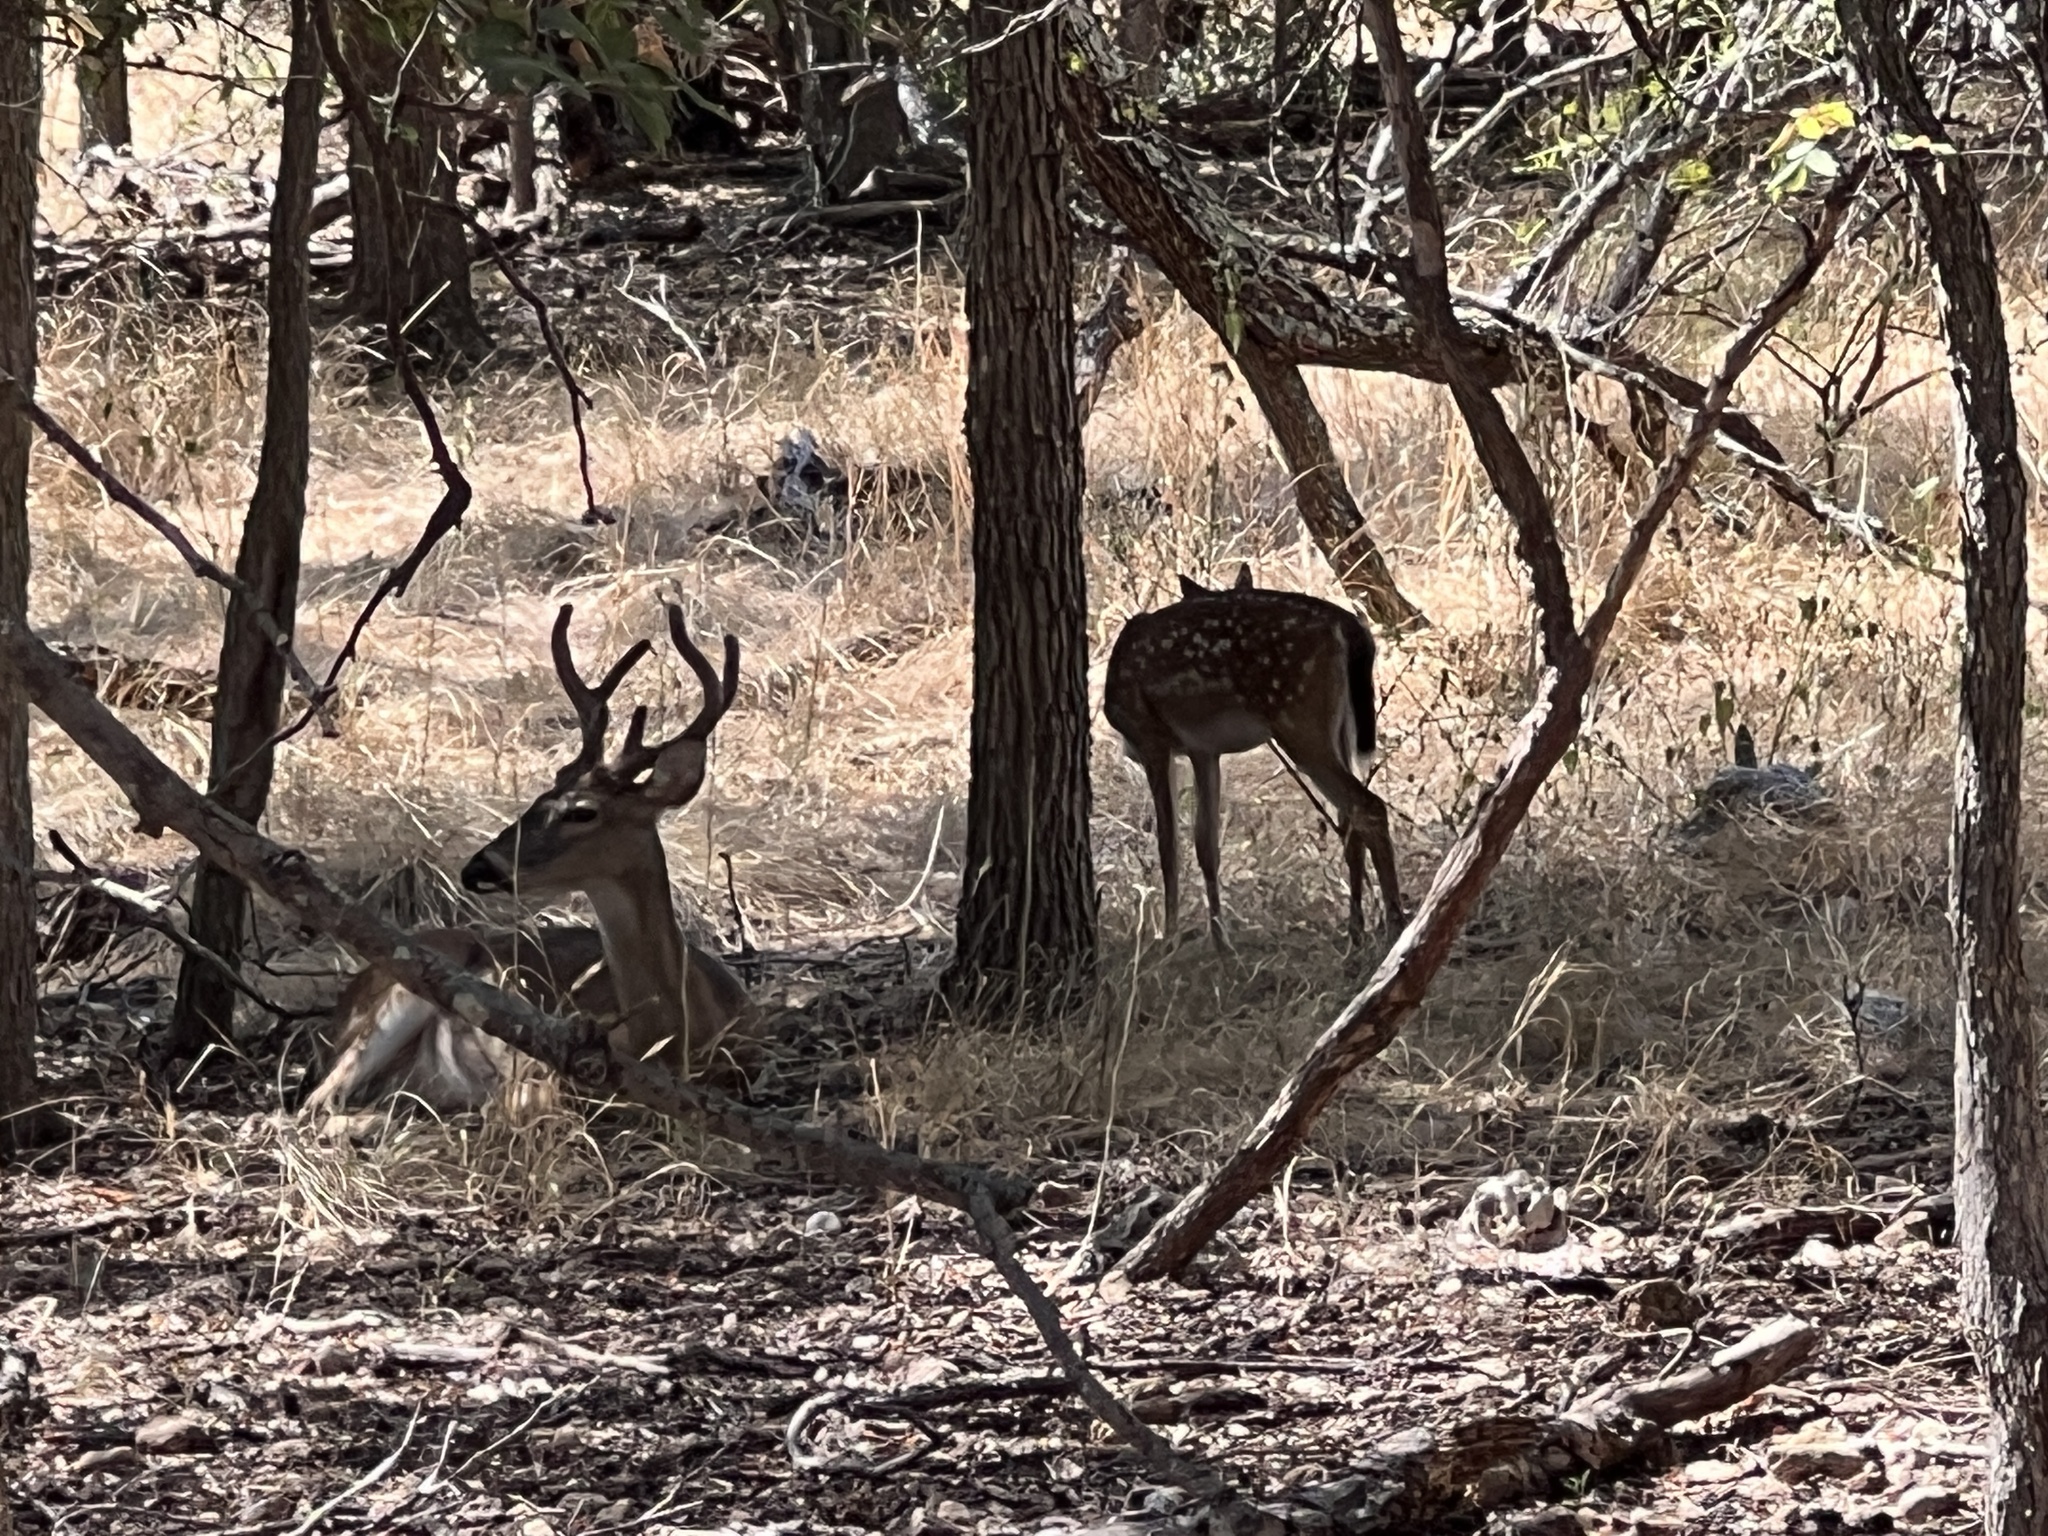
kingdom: Animalia
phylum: Chordata
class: Mammalia
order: Artiodactyla
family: Cervidae
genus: Odocoileus
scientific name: Odocoileus virginianus
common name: White-tailed deer
